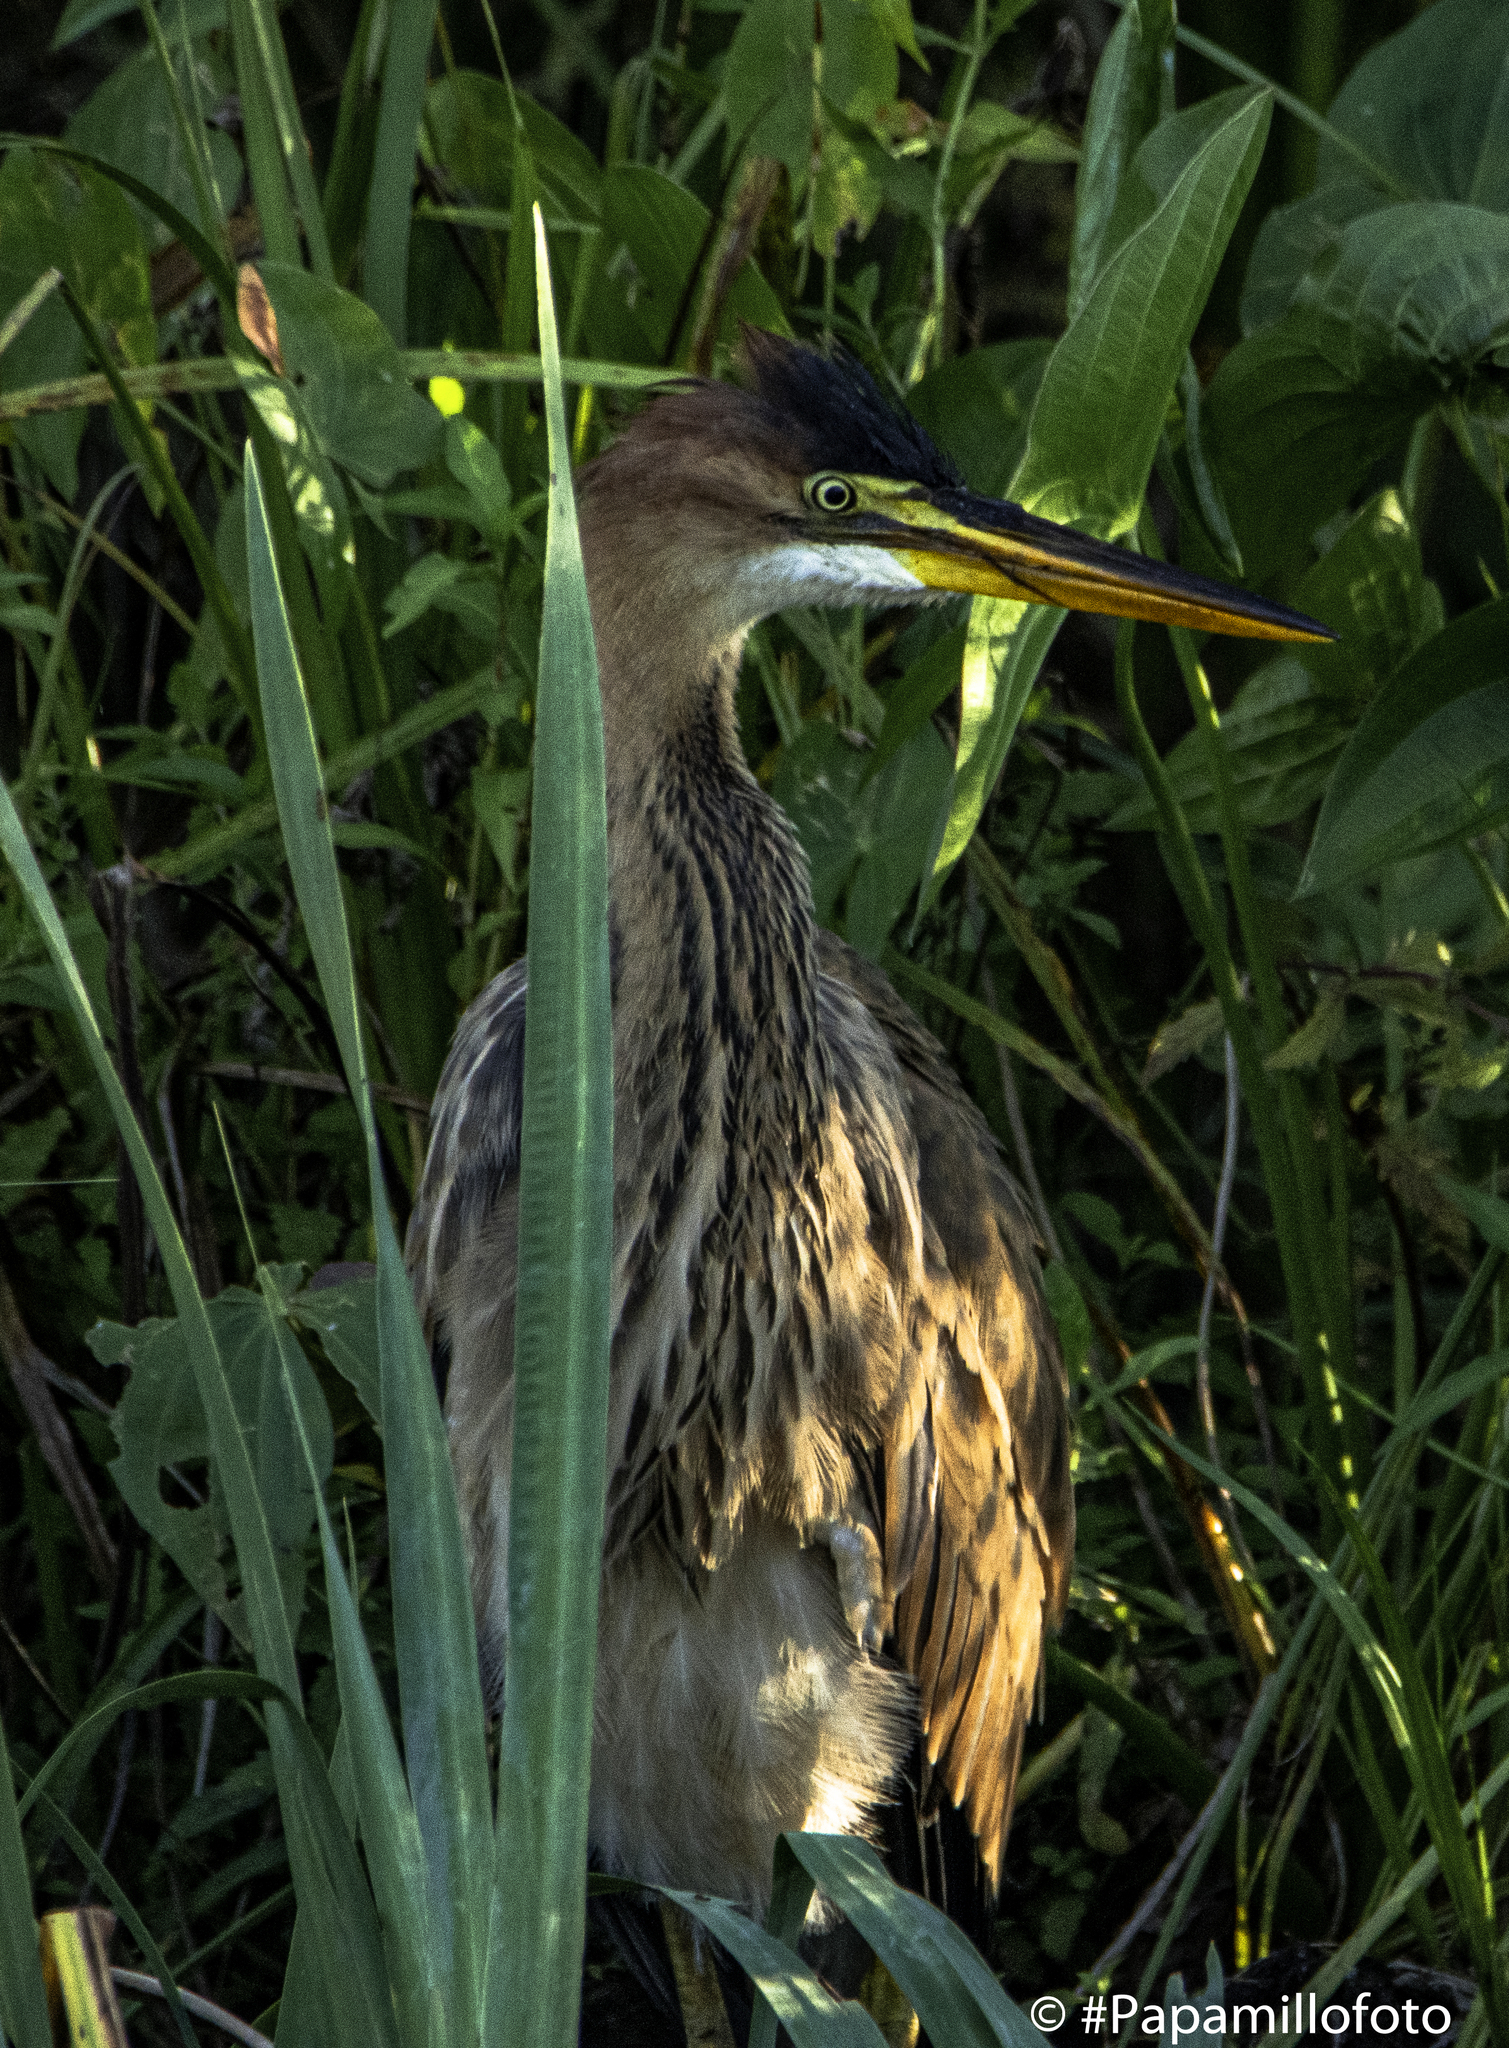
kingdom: Animalia
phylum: Chordata
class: Aves
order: Pelecaniformes
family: Ardeidae
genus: Ardea
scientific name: Ardea purpurea
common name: Purple heron
